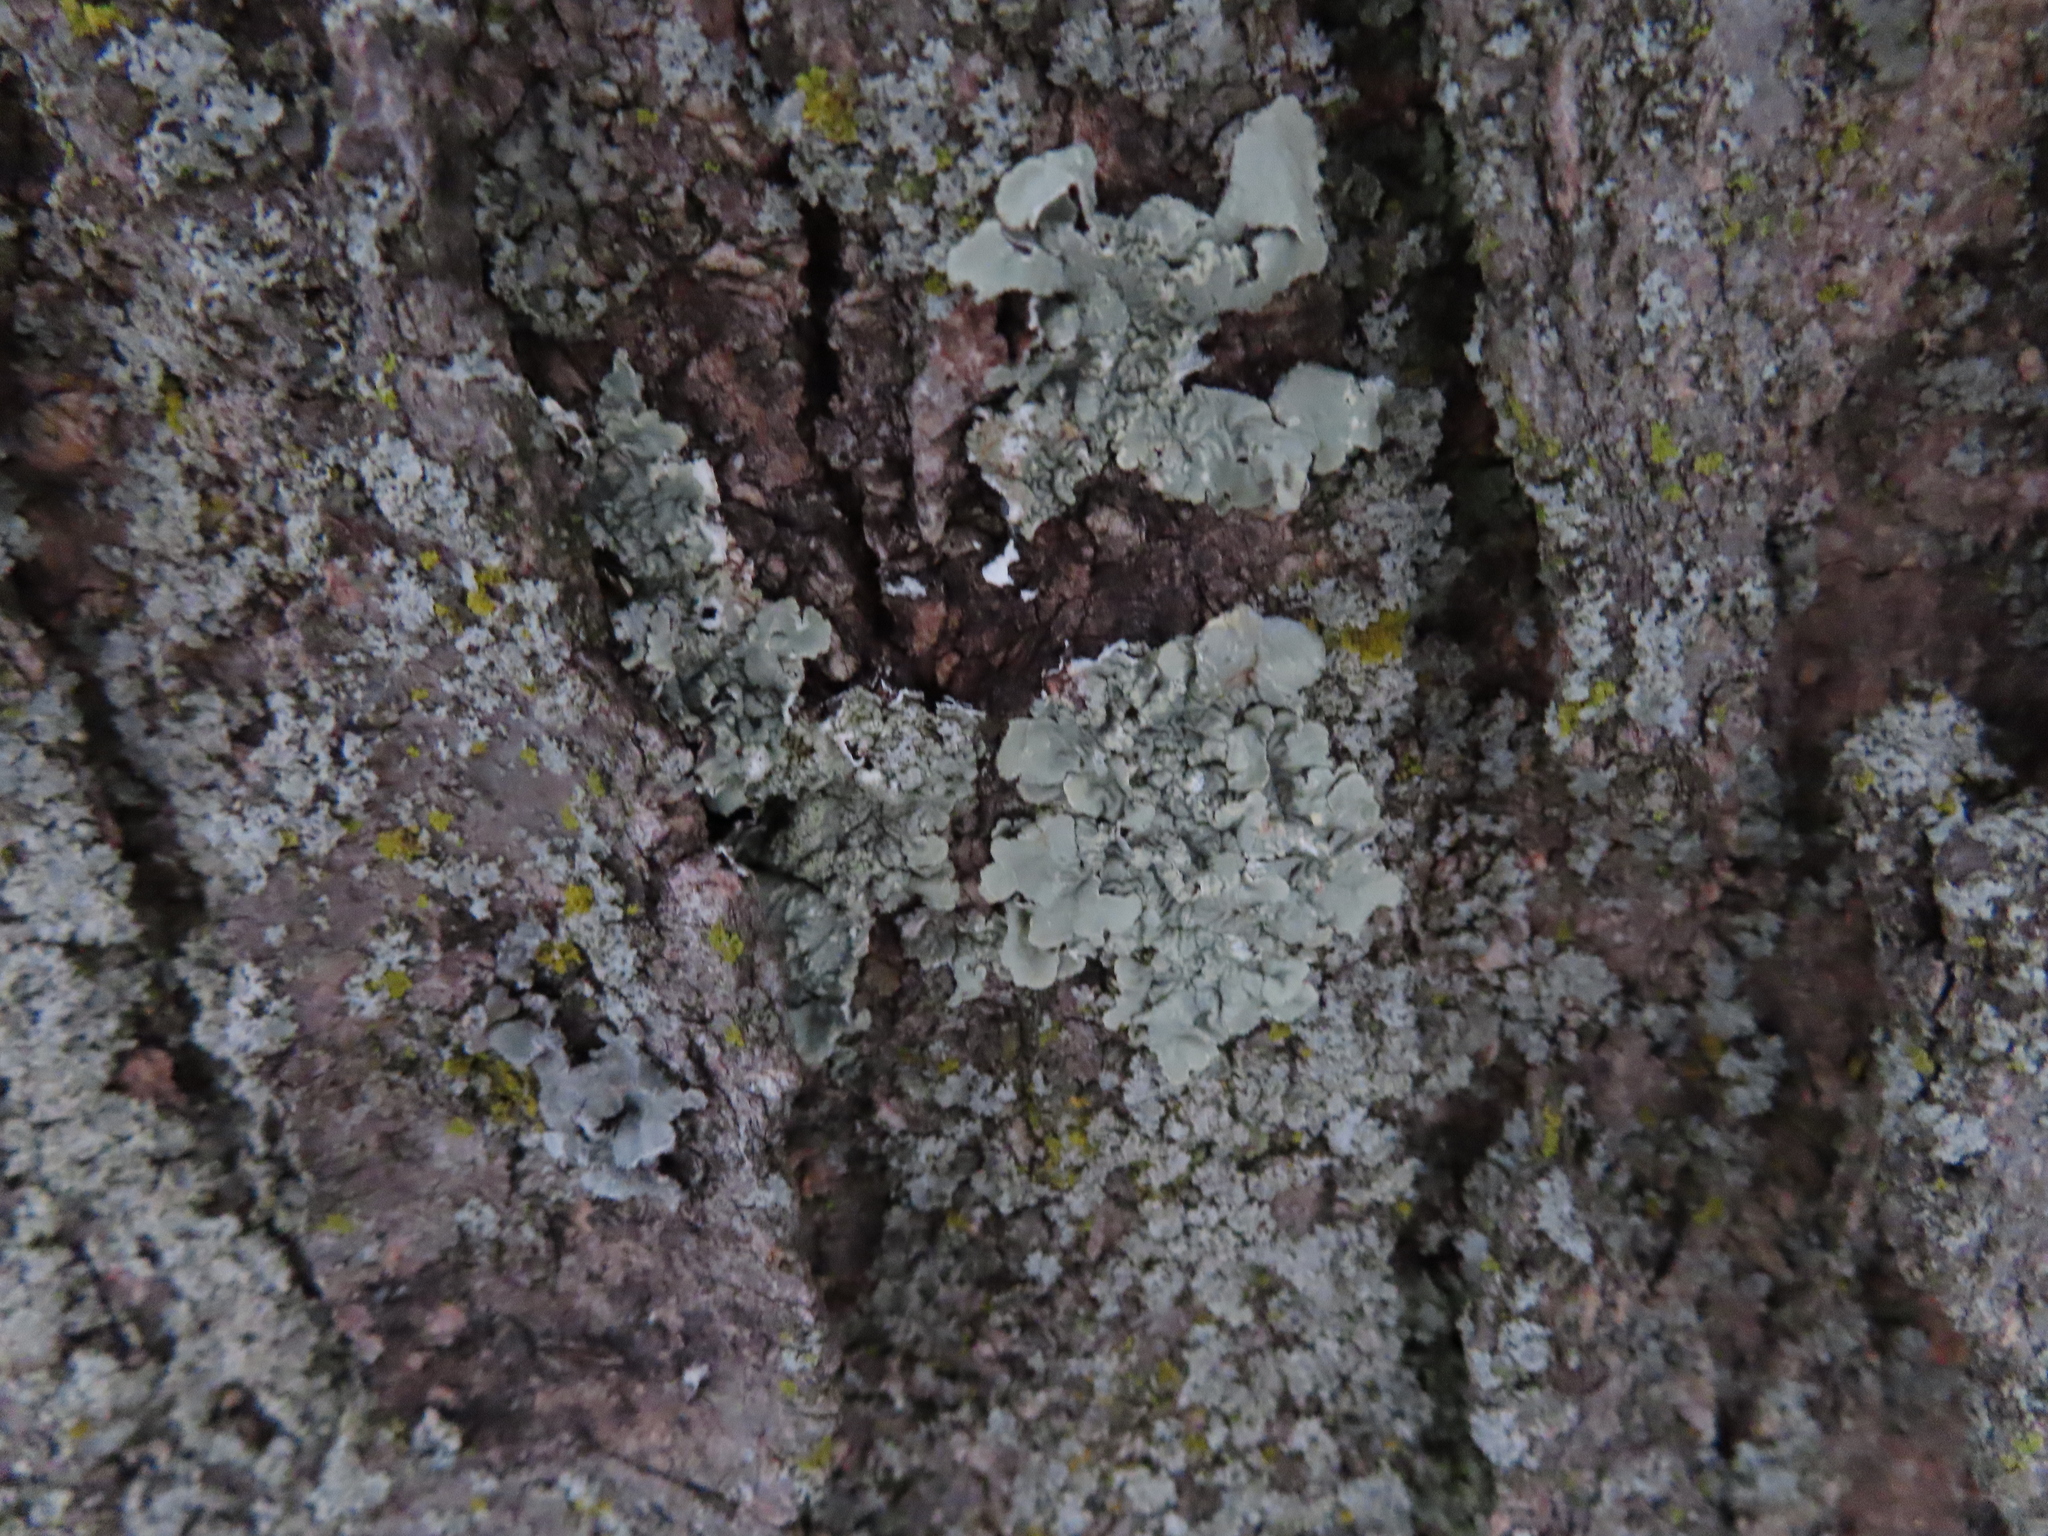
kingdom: Fungi
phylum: Ascomycota
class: Lecanoromycetes
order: Lecanorales
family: Parmeliaceae
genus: Flavoparmelia
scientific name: Flavoparmelia caperata
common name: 40-mile per hour lichen
